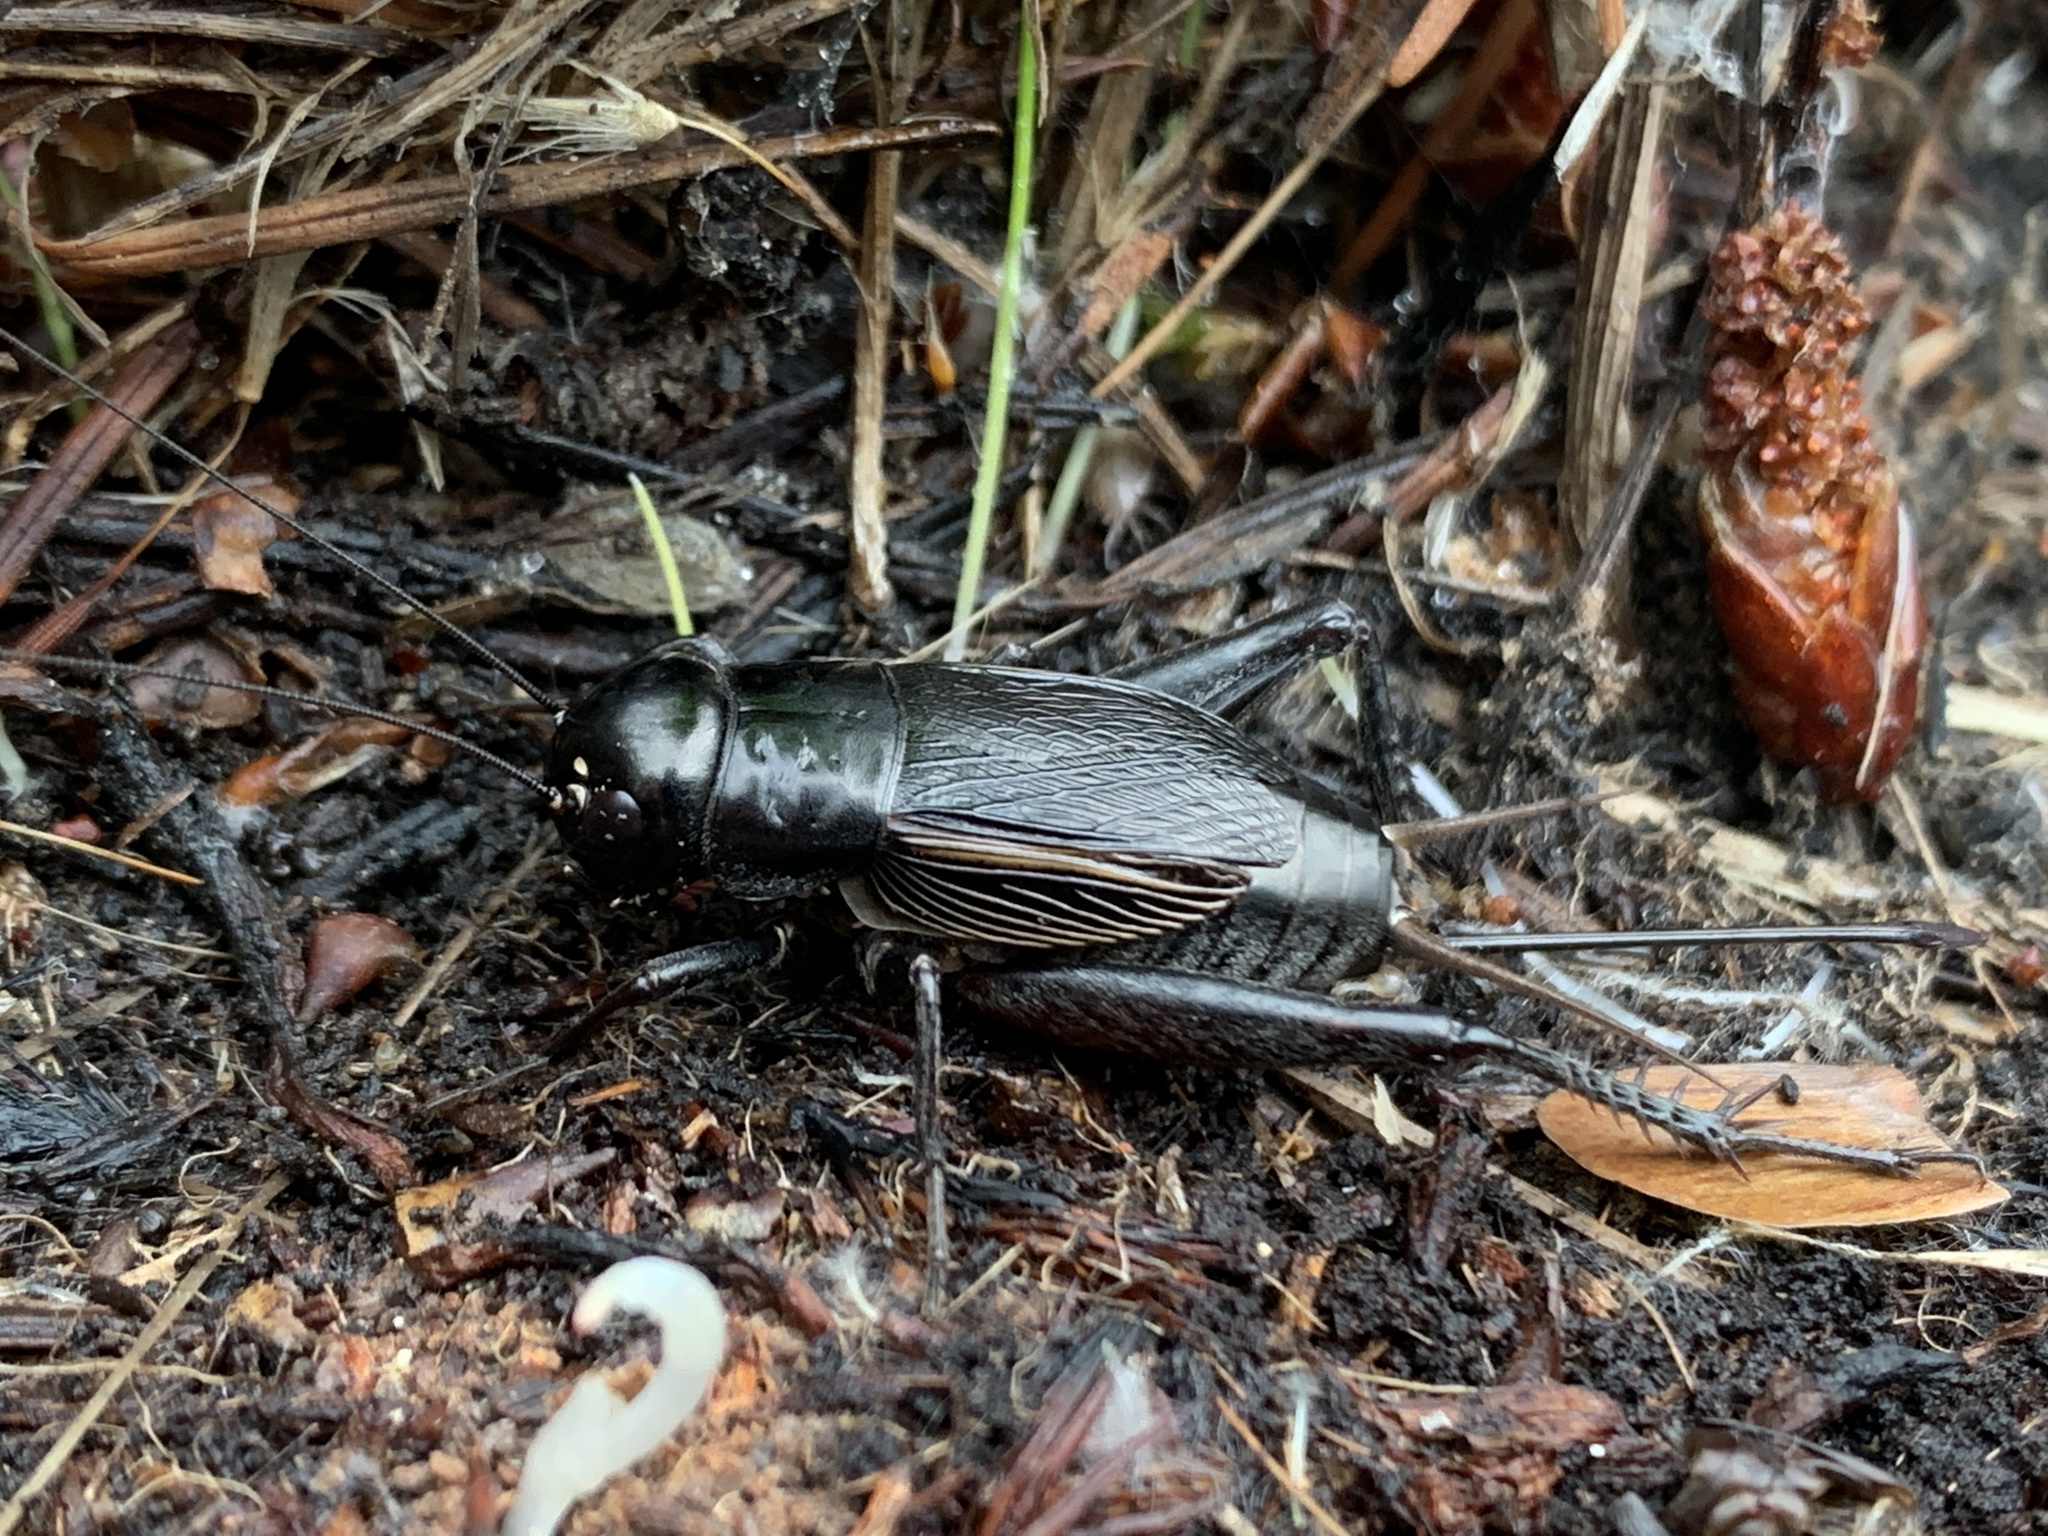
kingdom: Animalia
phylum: Arthropoda
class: Insecta
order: Orthoptera
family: Gryllidae
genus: Gryllus
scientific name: Gryllus pennsylvanicus
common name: Fall field cricket
